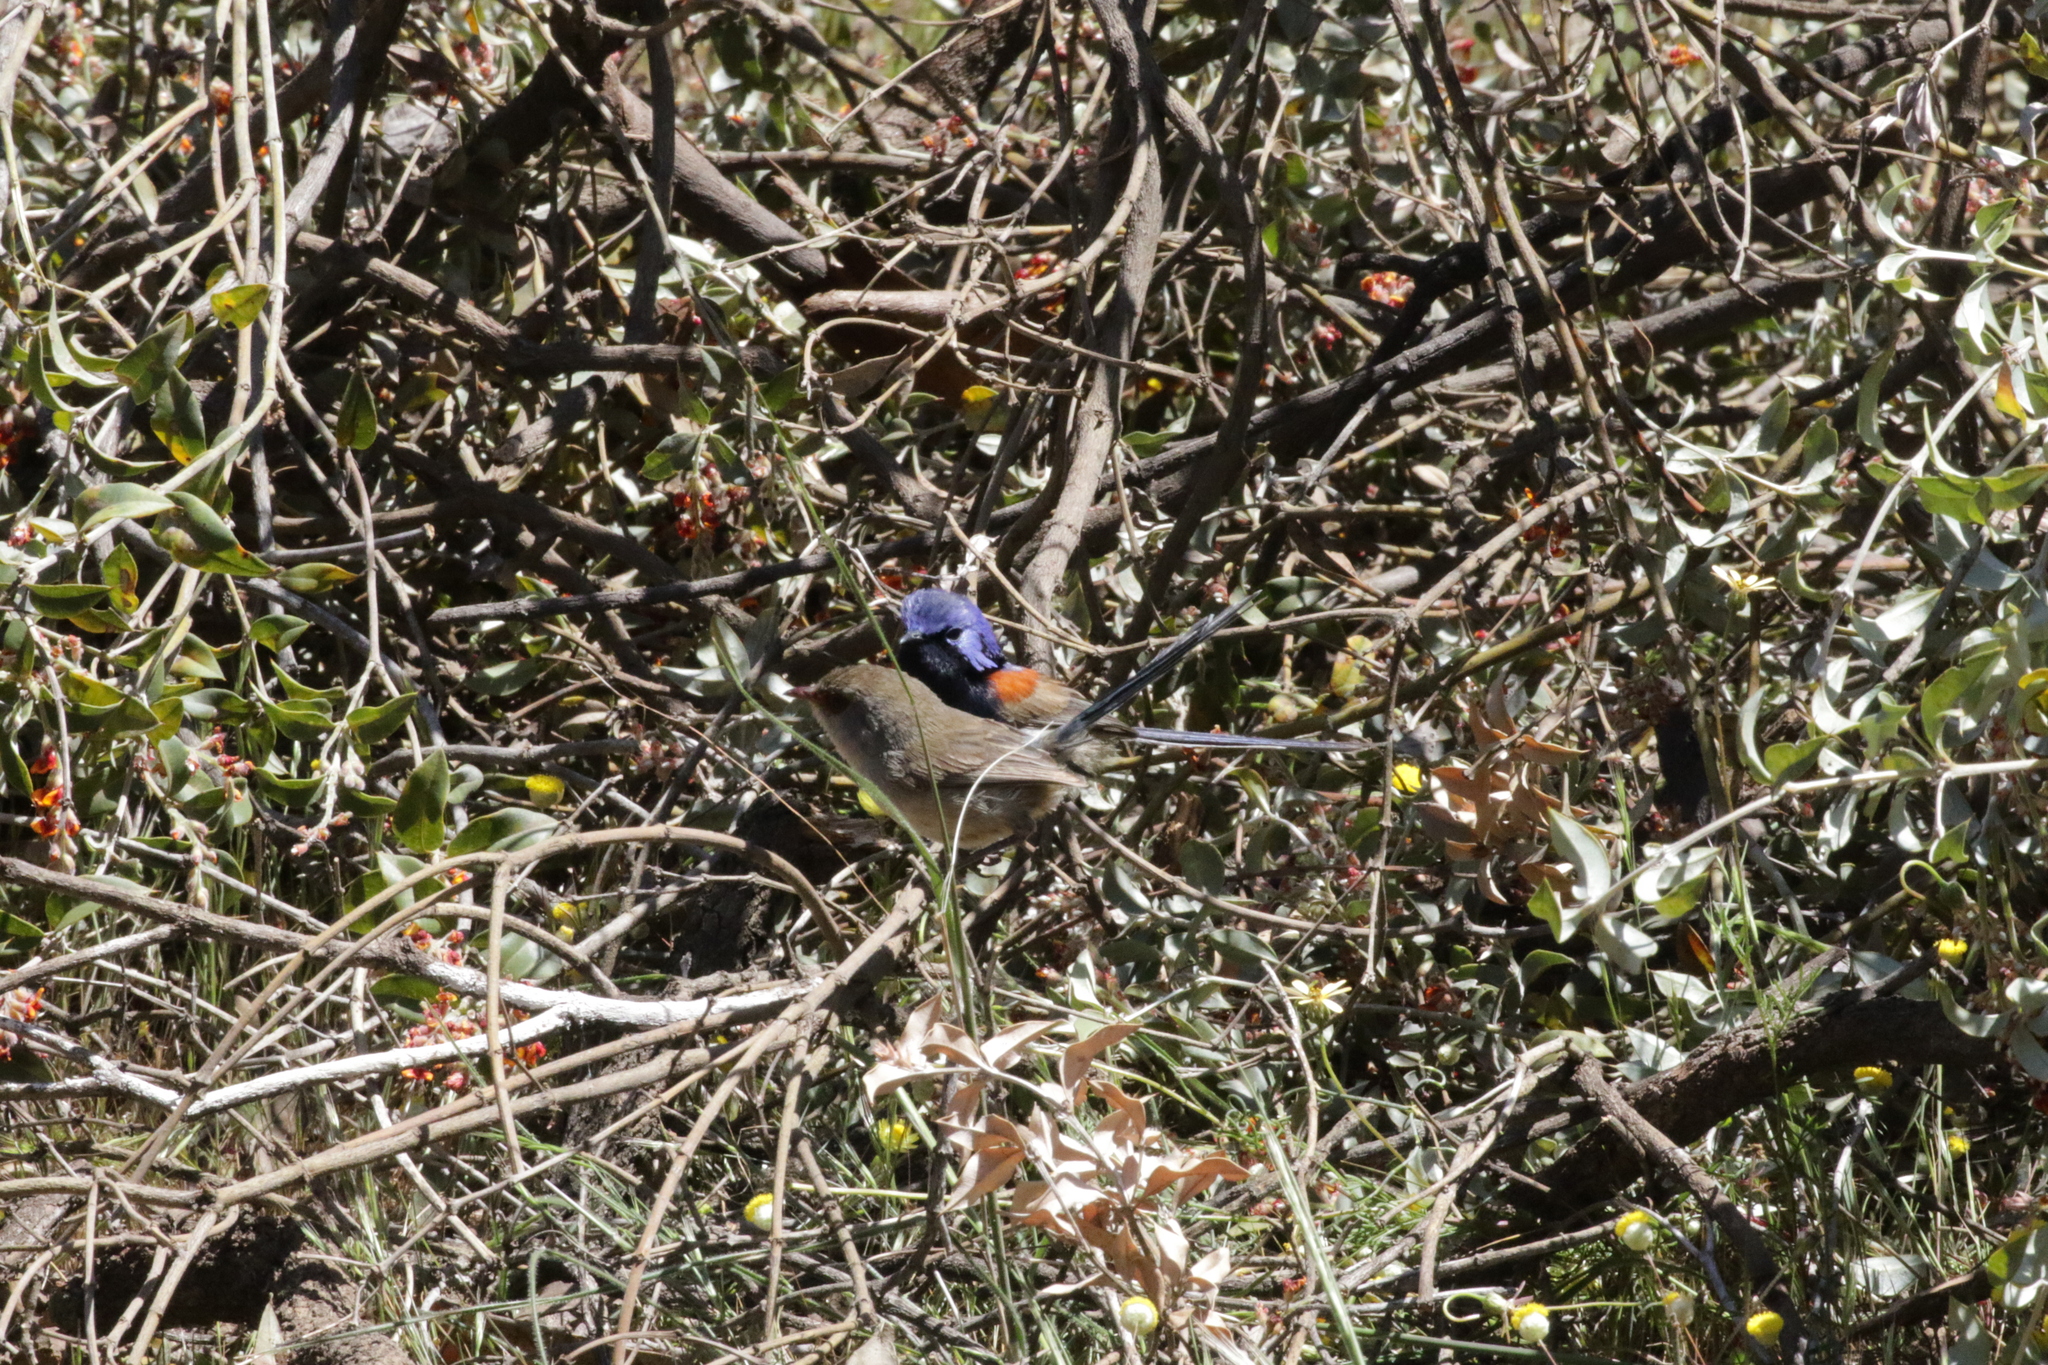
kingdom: Animalia
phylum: Chordata
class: Aves
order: Passeriformes
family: Maluridae
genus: Malurus
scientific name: Malurus pulcherrimus
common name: Blue-breasted fairywren
